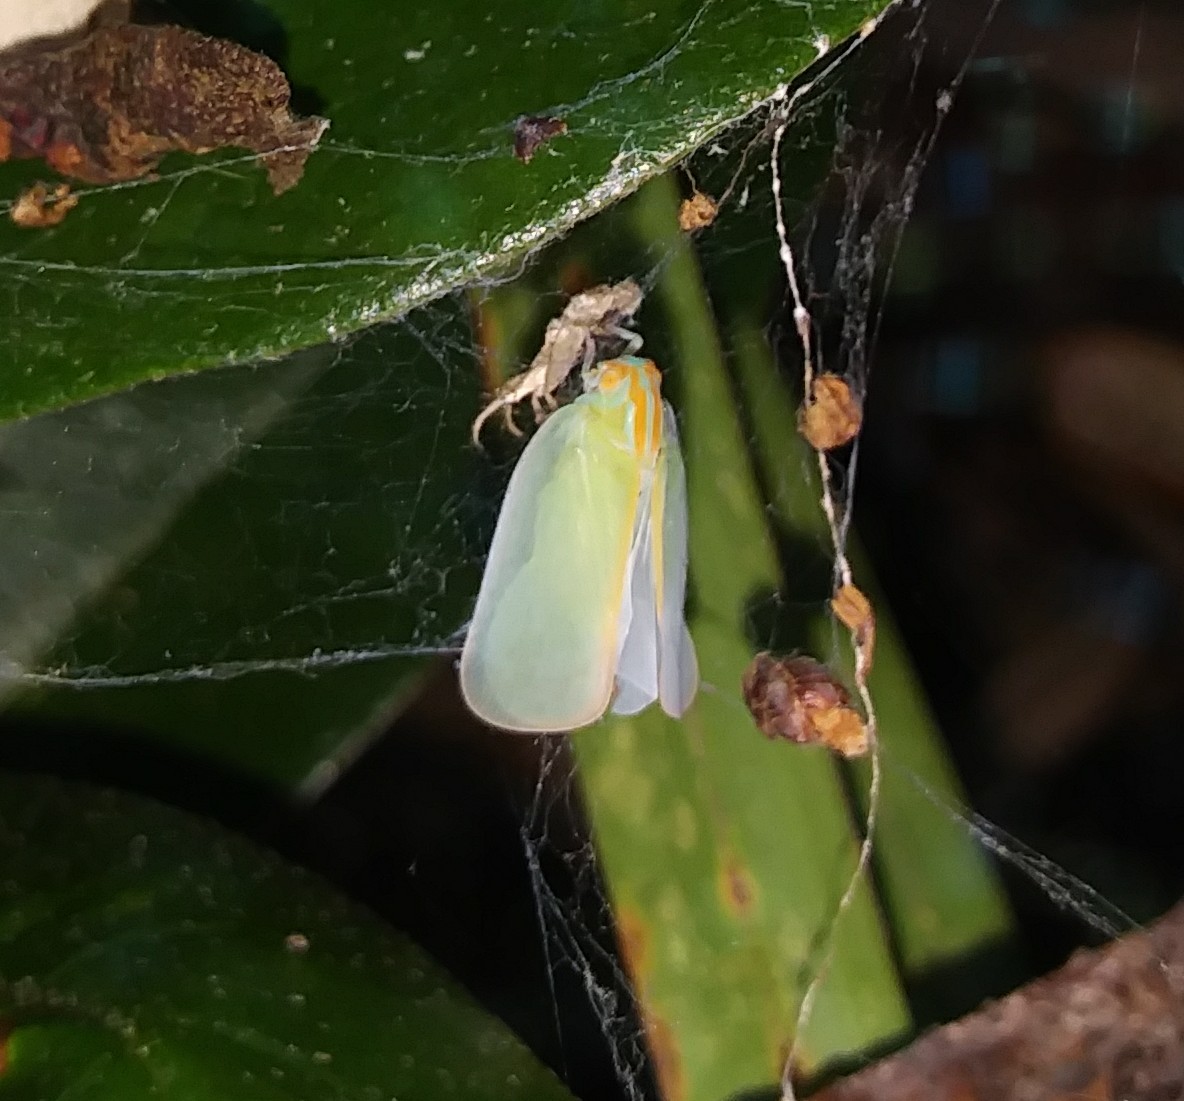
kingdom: Animalia
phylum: Arthropoda
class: Insecta
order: Hemiptera
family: Flatidae
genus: Ormenaria
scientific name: Ormenaria rufifascia
